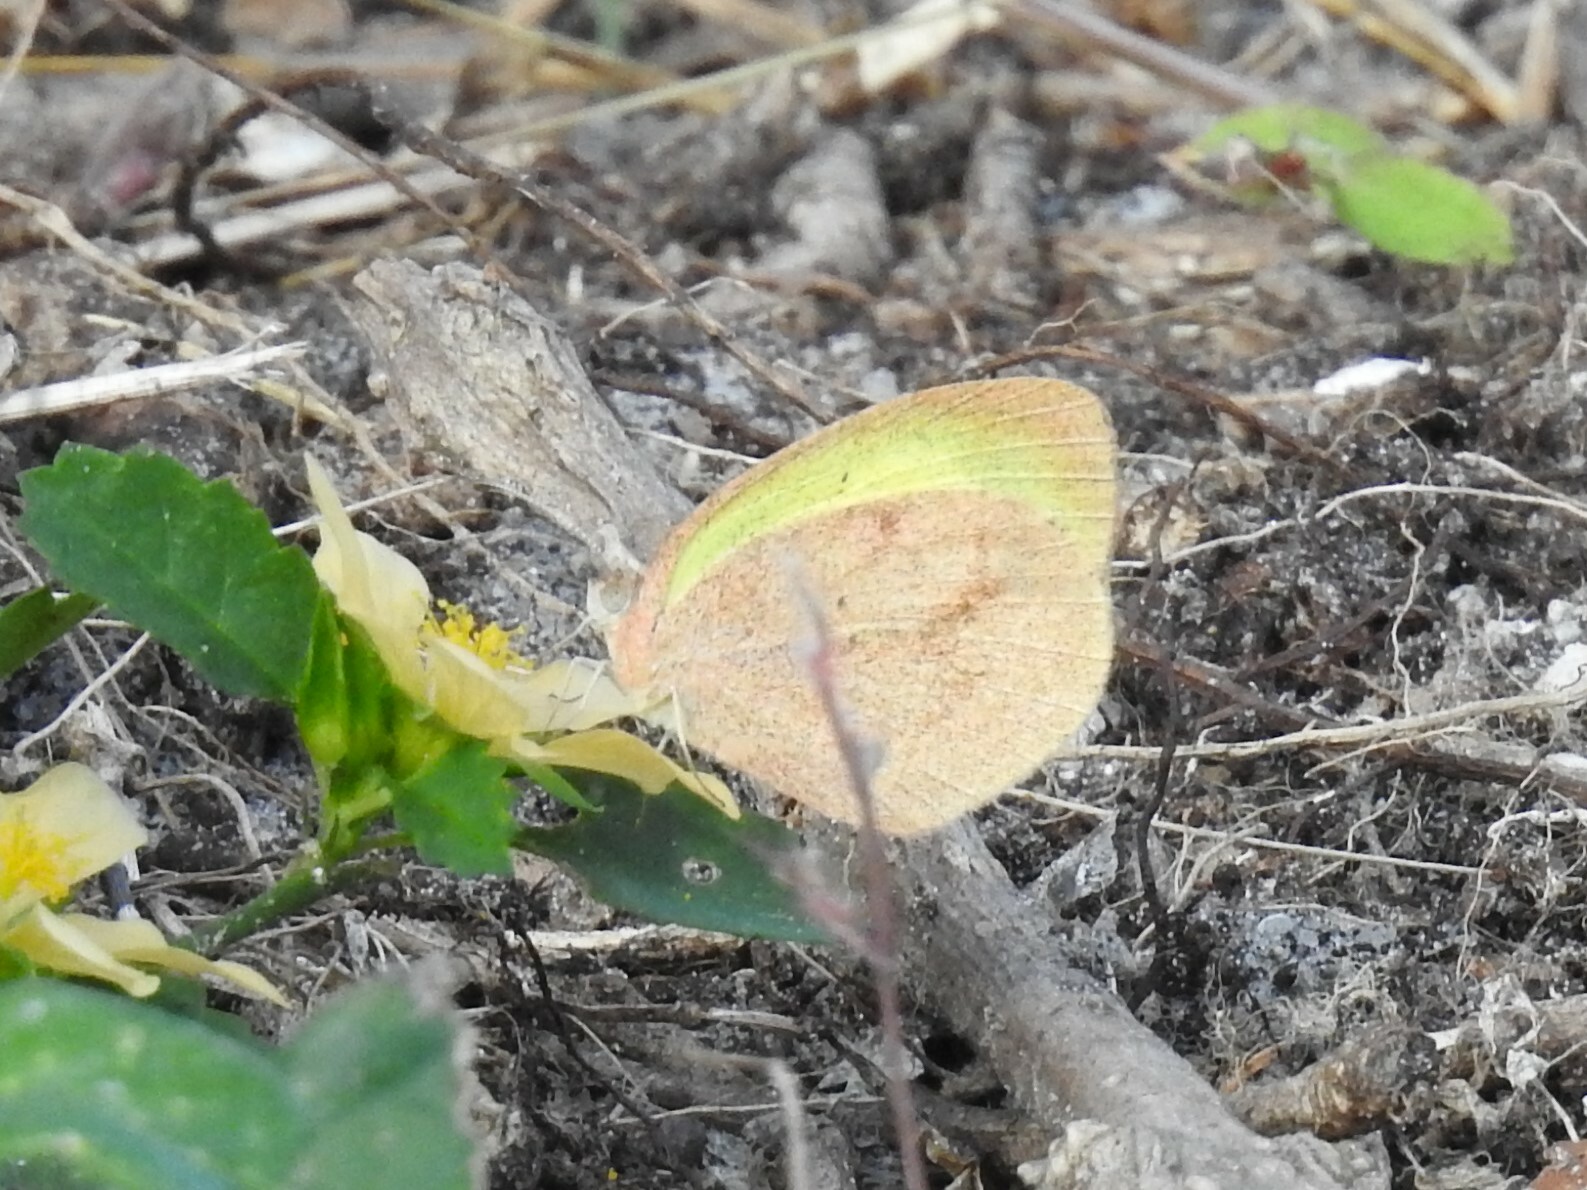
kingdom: Animalia
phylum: Arthropoda
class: Insecta
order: Lepidoptera
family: Pieridae
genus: Eurema
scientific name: Eurema daira
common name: Barred sulphur
